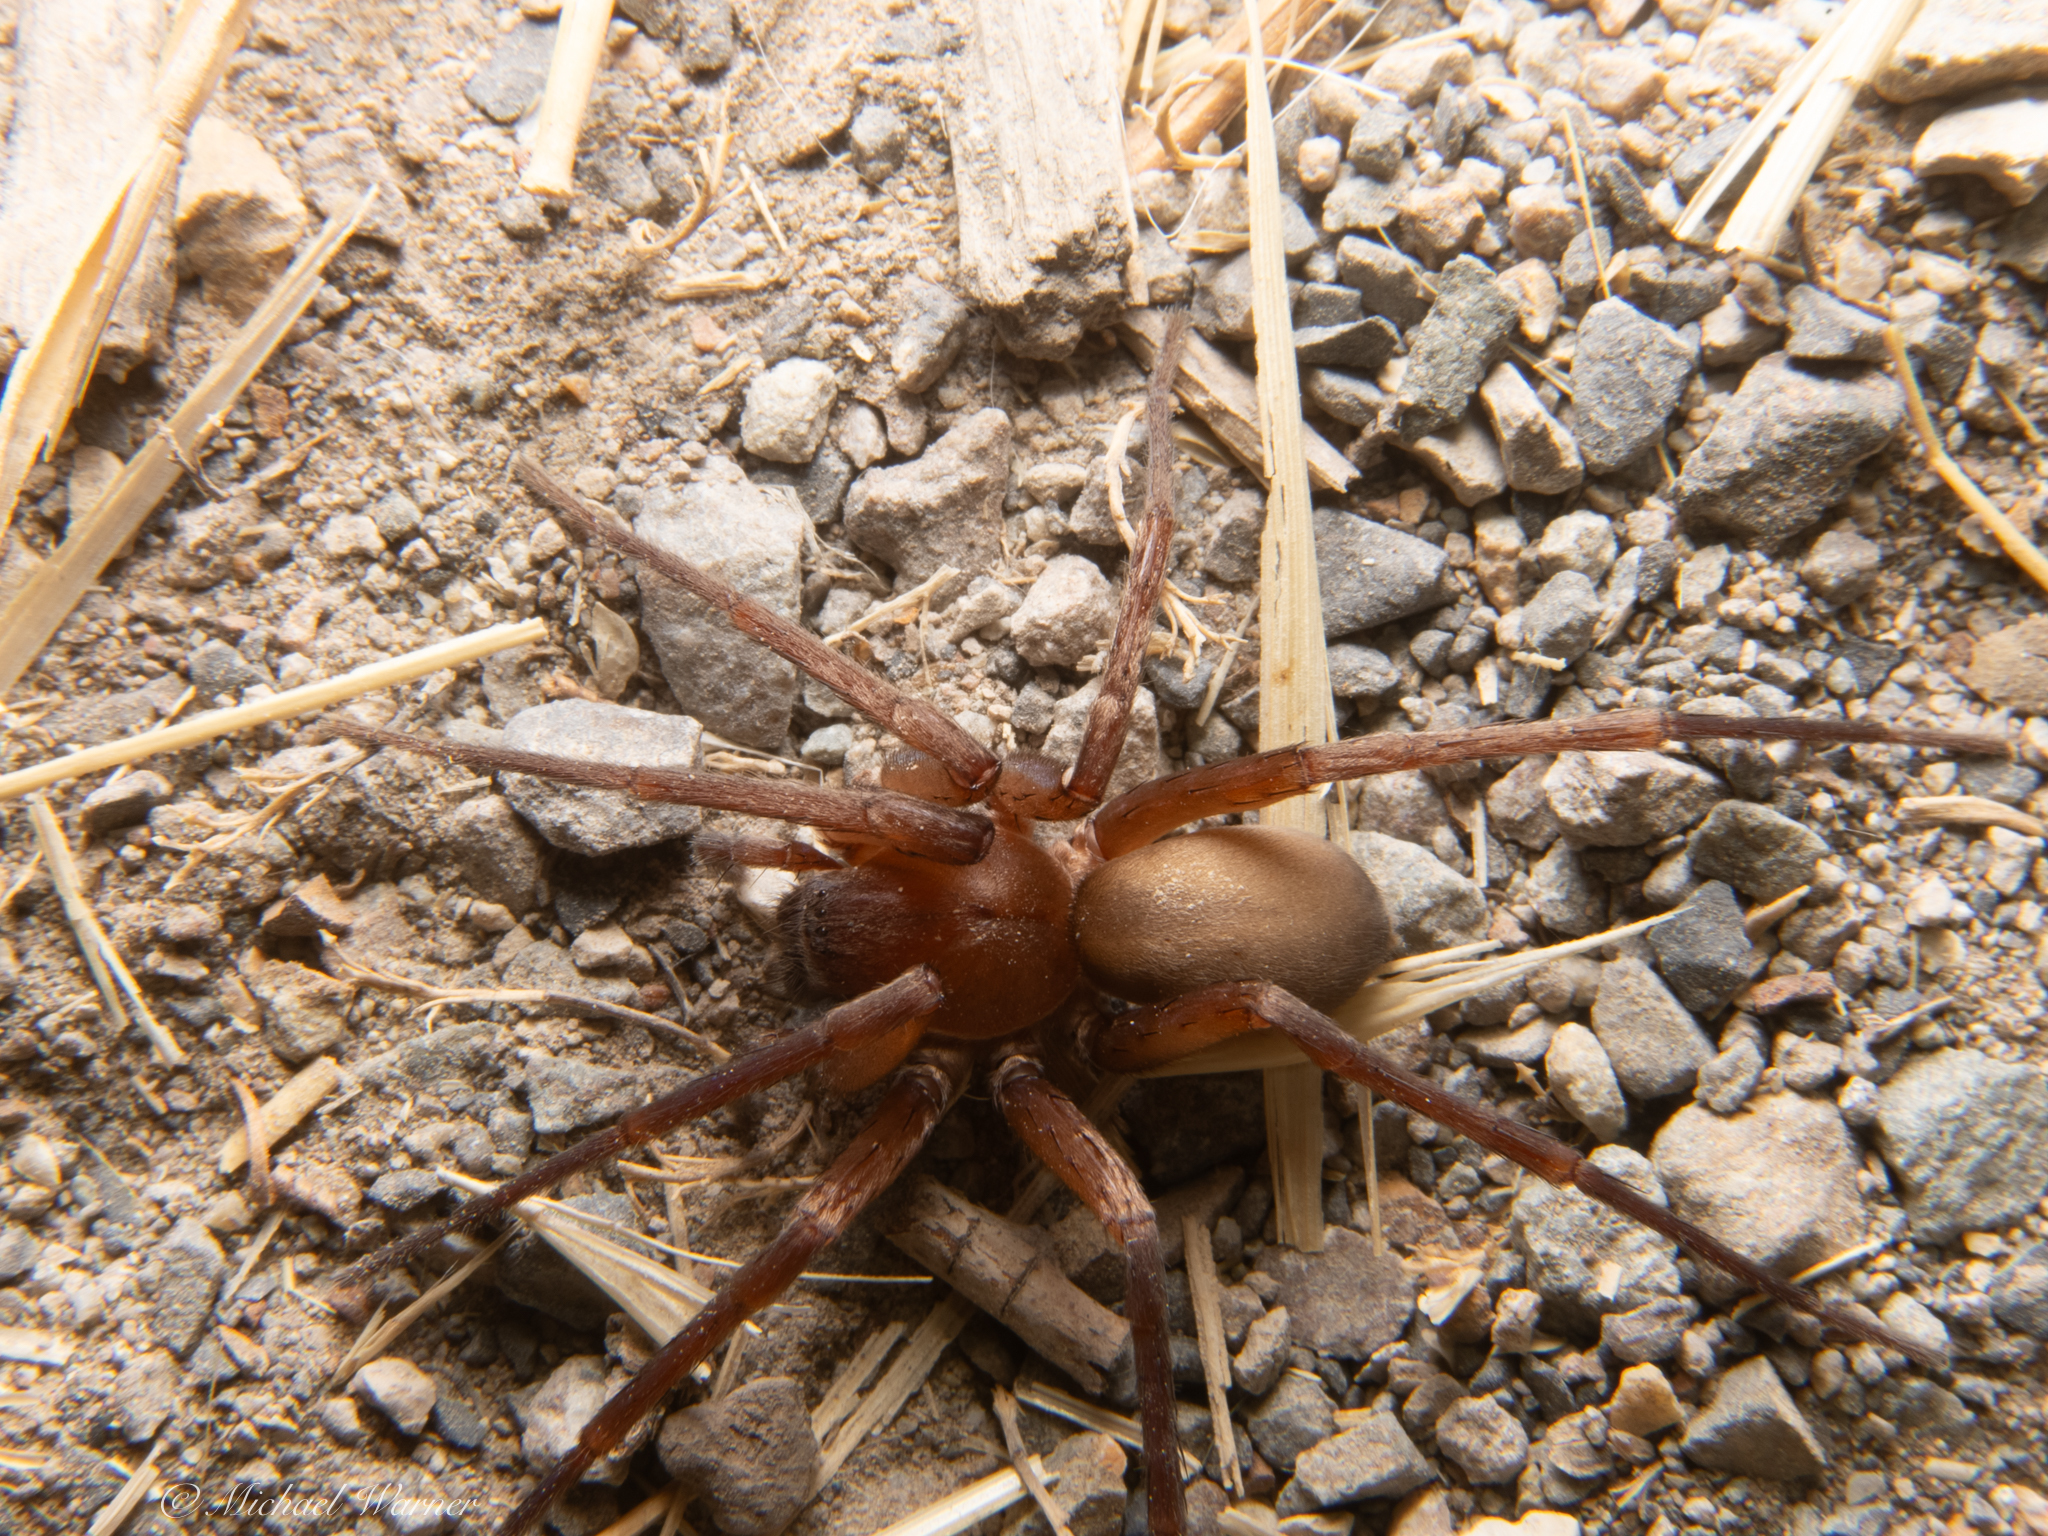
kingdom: Animalia
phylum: Arthropoda
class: Arachnida
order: Araneae
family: Zoropsidae
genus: Titiotus
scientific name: Titiotus
